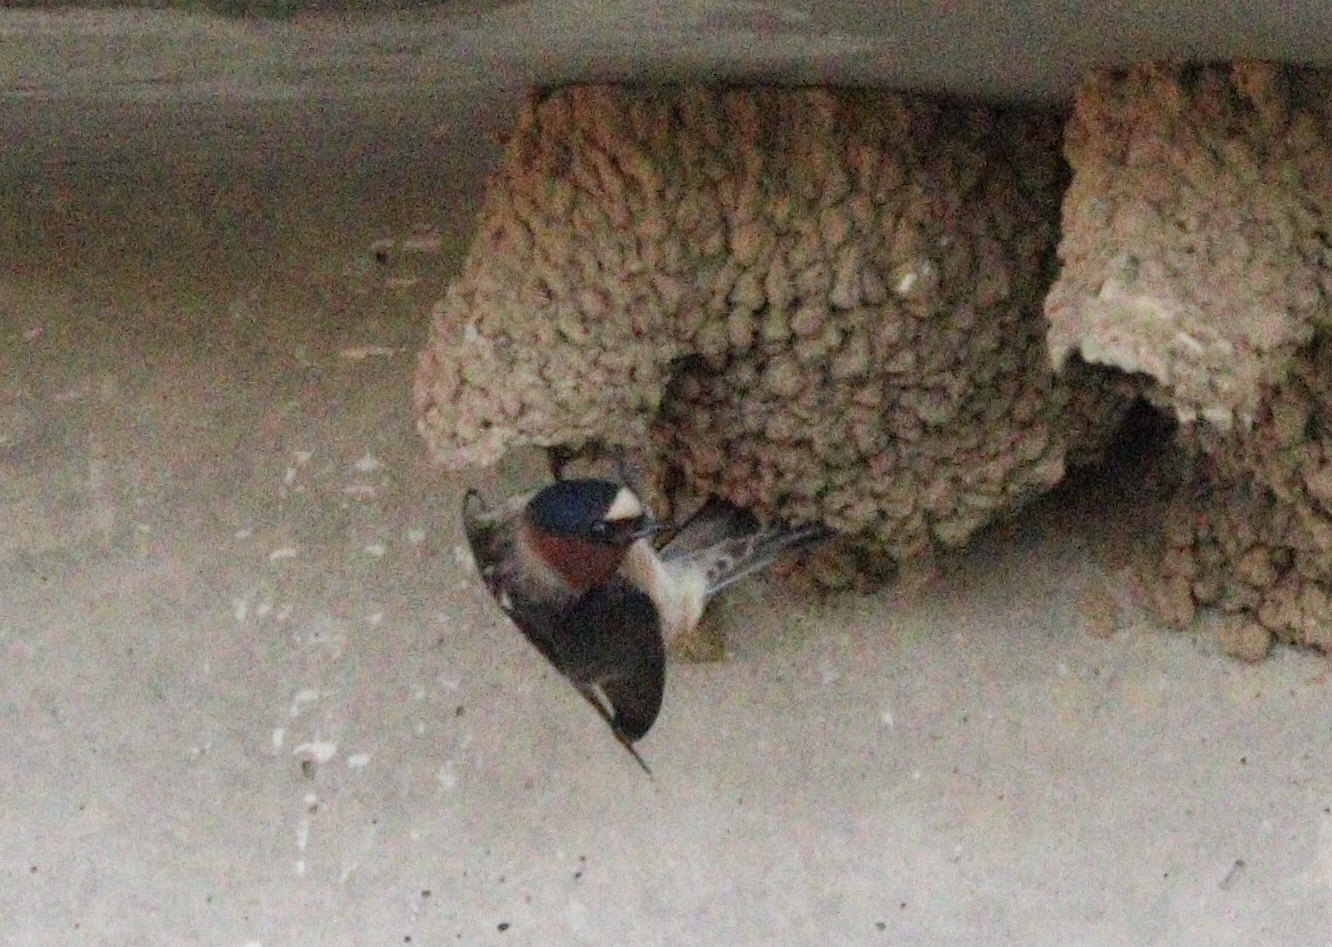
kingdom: Animalia
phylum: Chordata
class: Aves
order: Passeriformes
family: Hirundinidae
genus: Petrochelidon
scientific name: Petrochelidon pyrrhonota
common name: American cliff swallow
